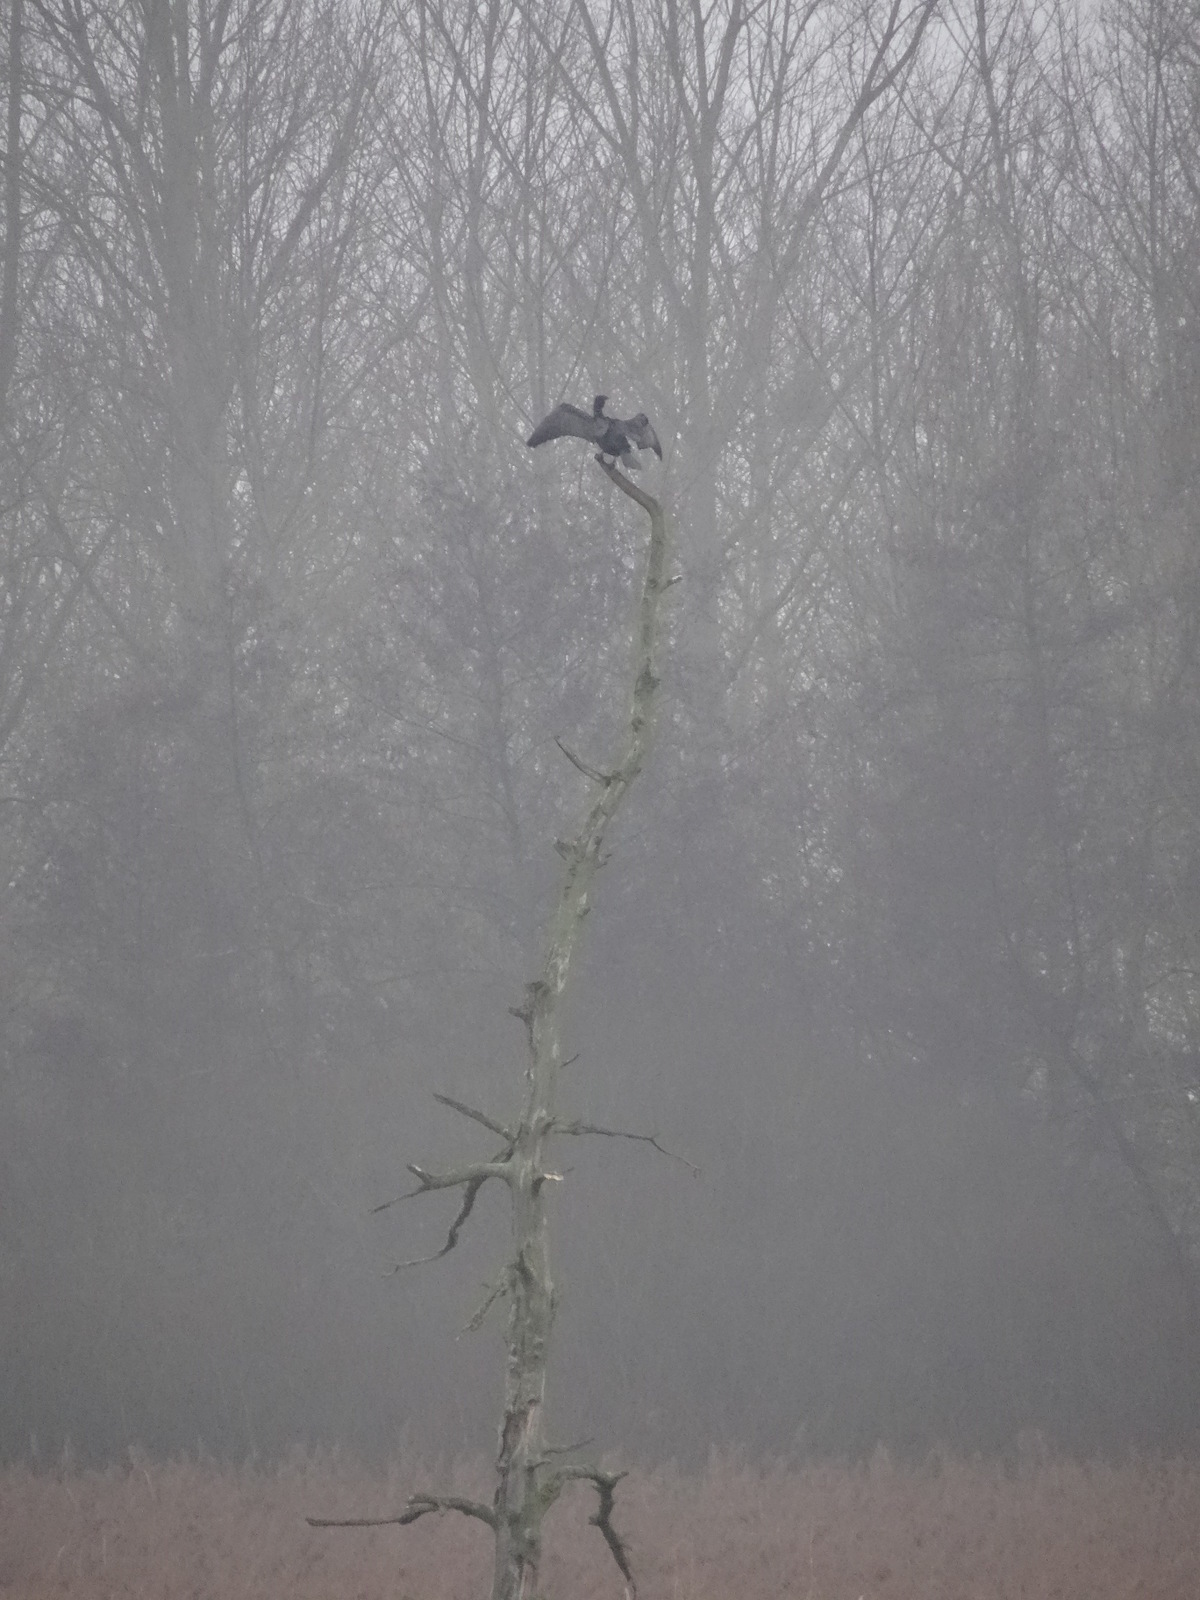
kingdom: Animalia
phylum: Chordata
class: Aves
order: Suliformes
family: Phalacrocoracidae
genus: Phalacrocorax
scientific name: Phalacrocorax carbo
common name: Great cormorant
